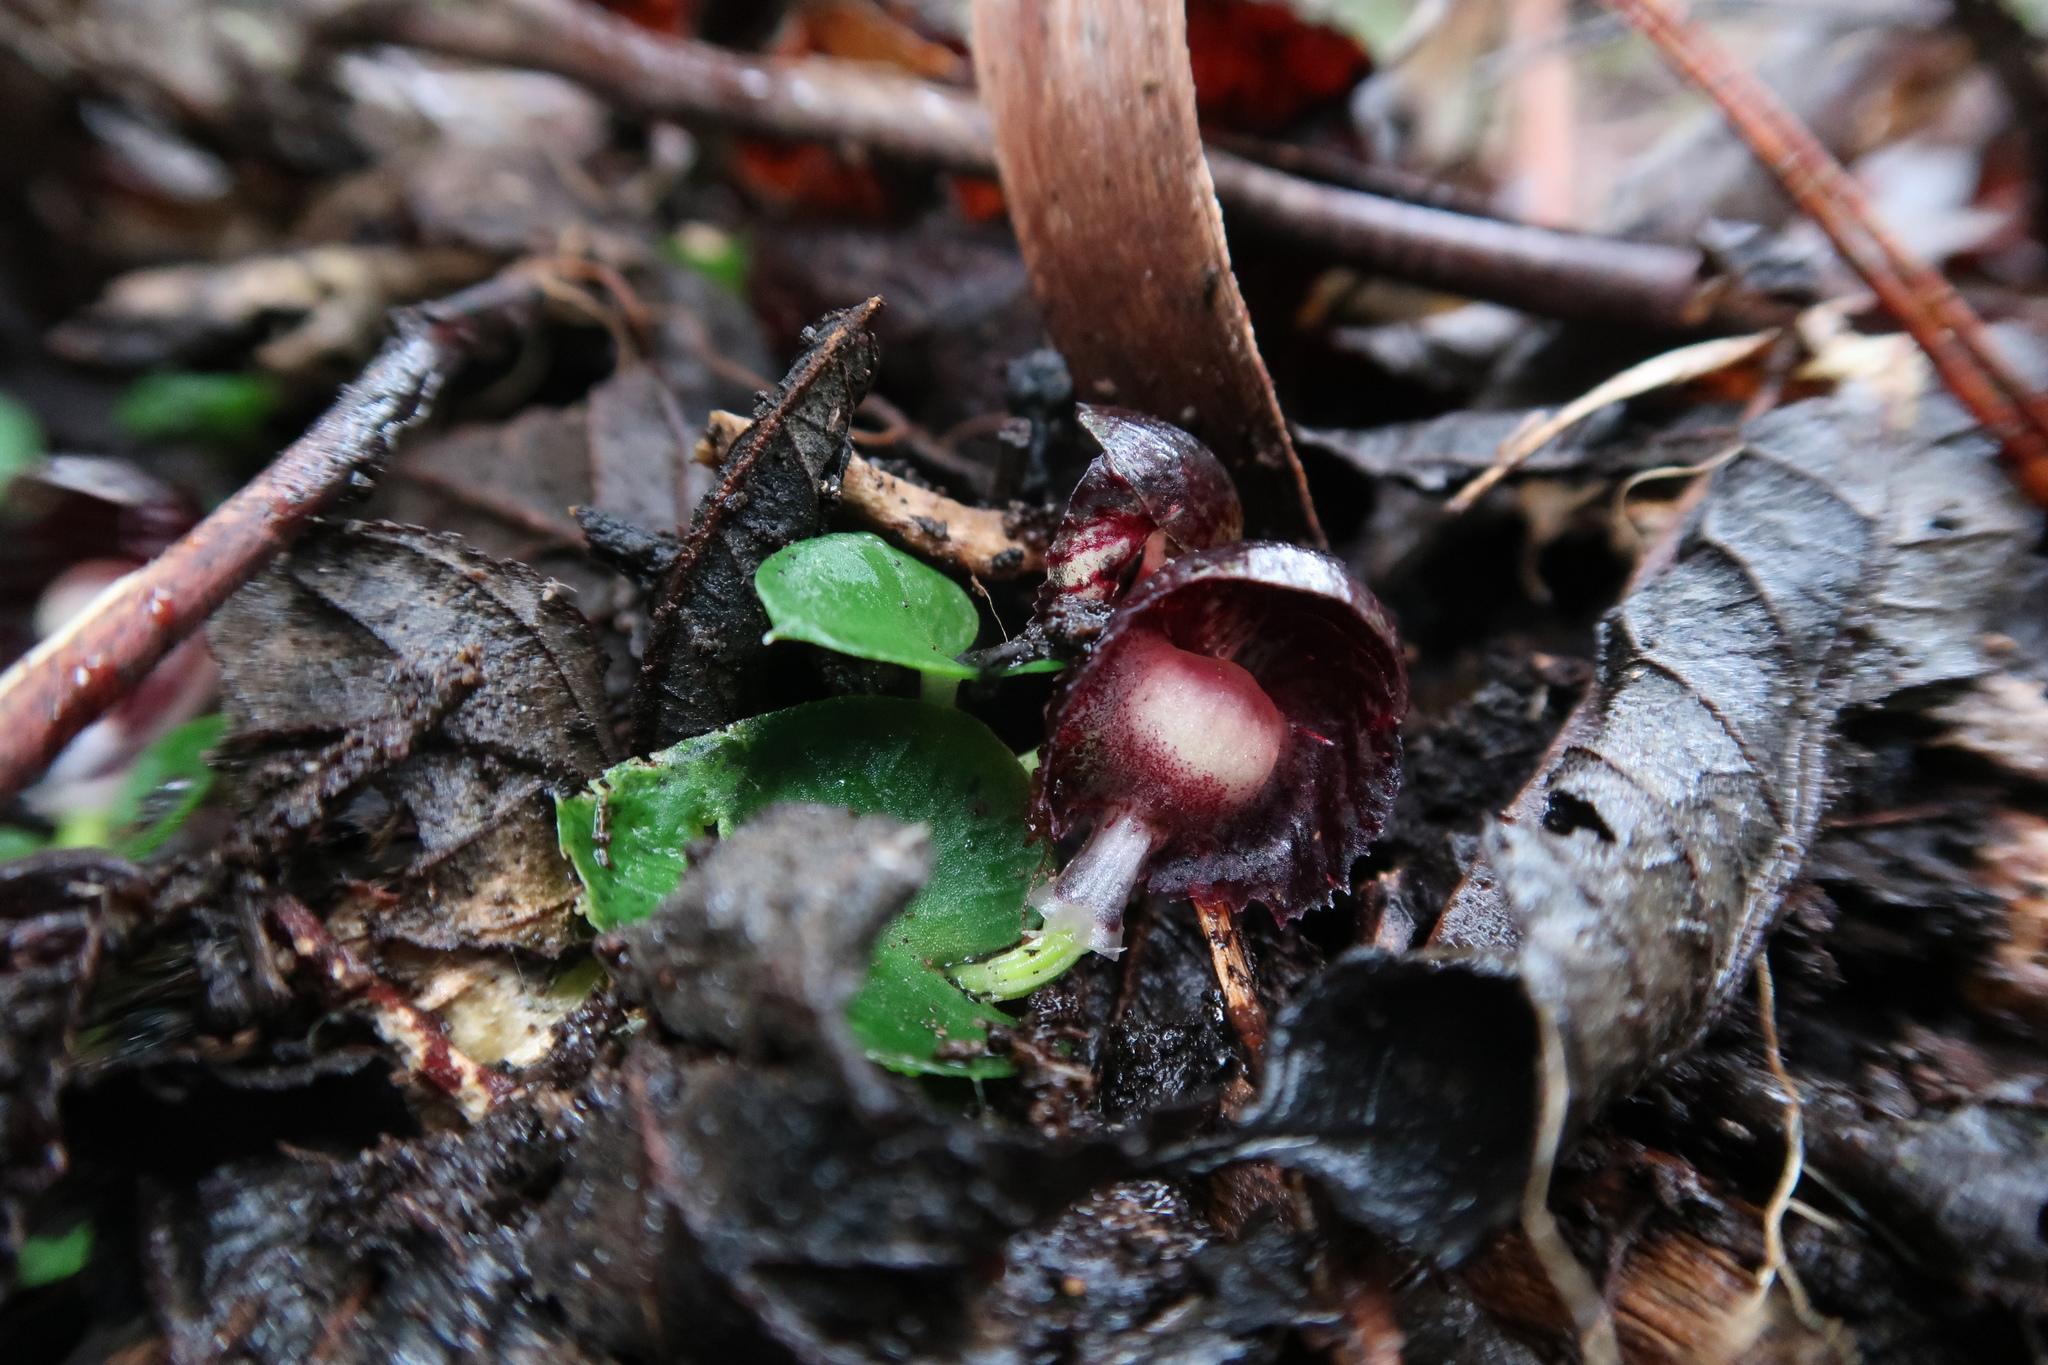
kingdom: Plantae
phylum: Tracheophyta
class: Liliopsida
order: Asparagales
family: Orchidaceae
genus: Corybas
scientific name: Corybas diemenicus
